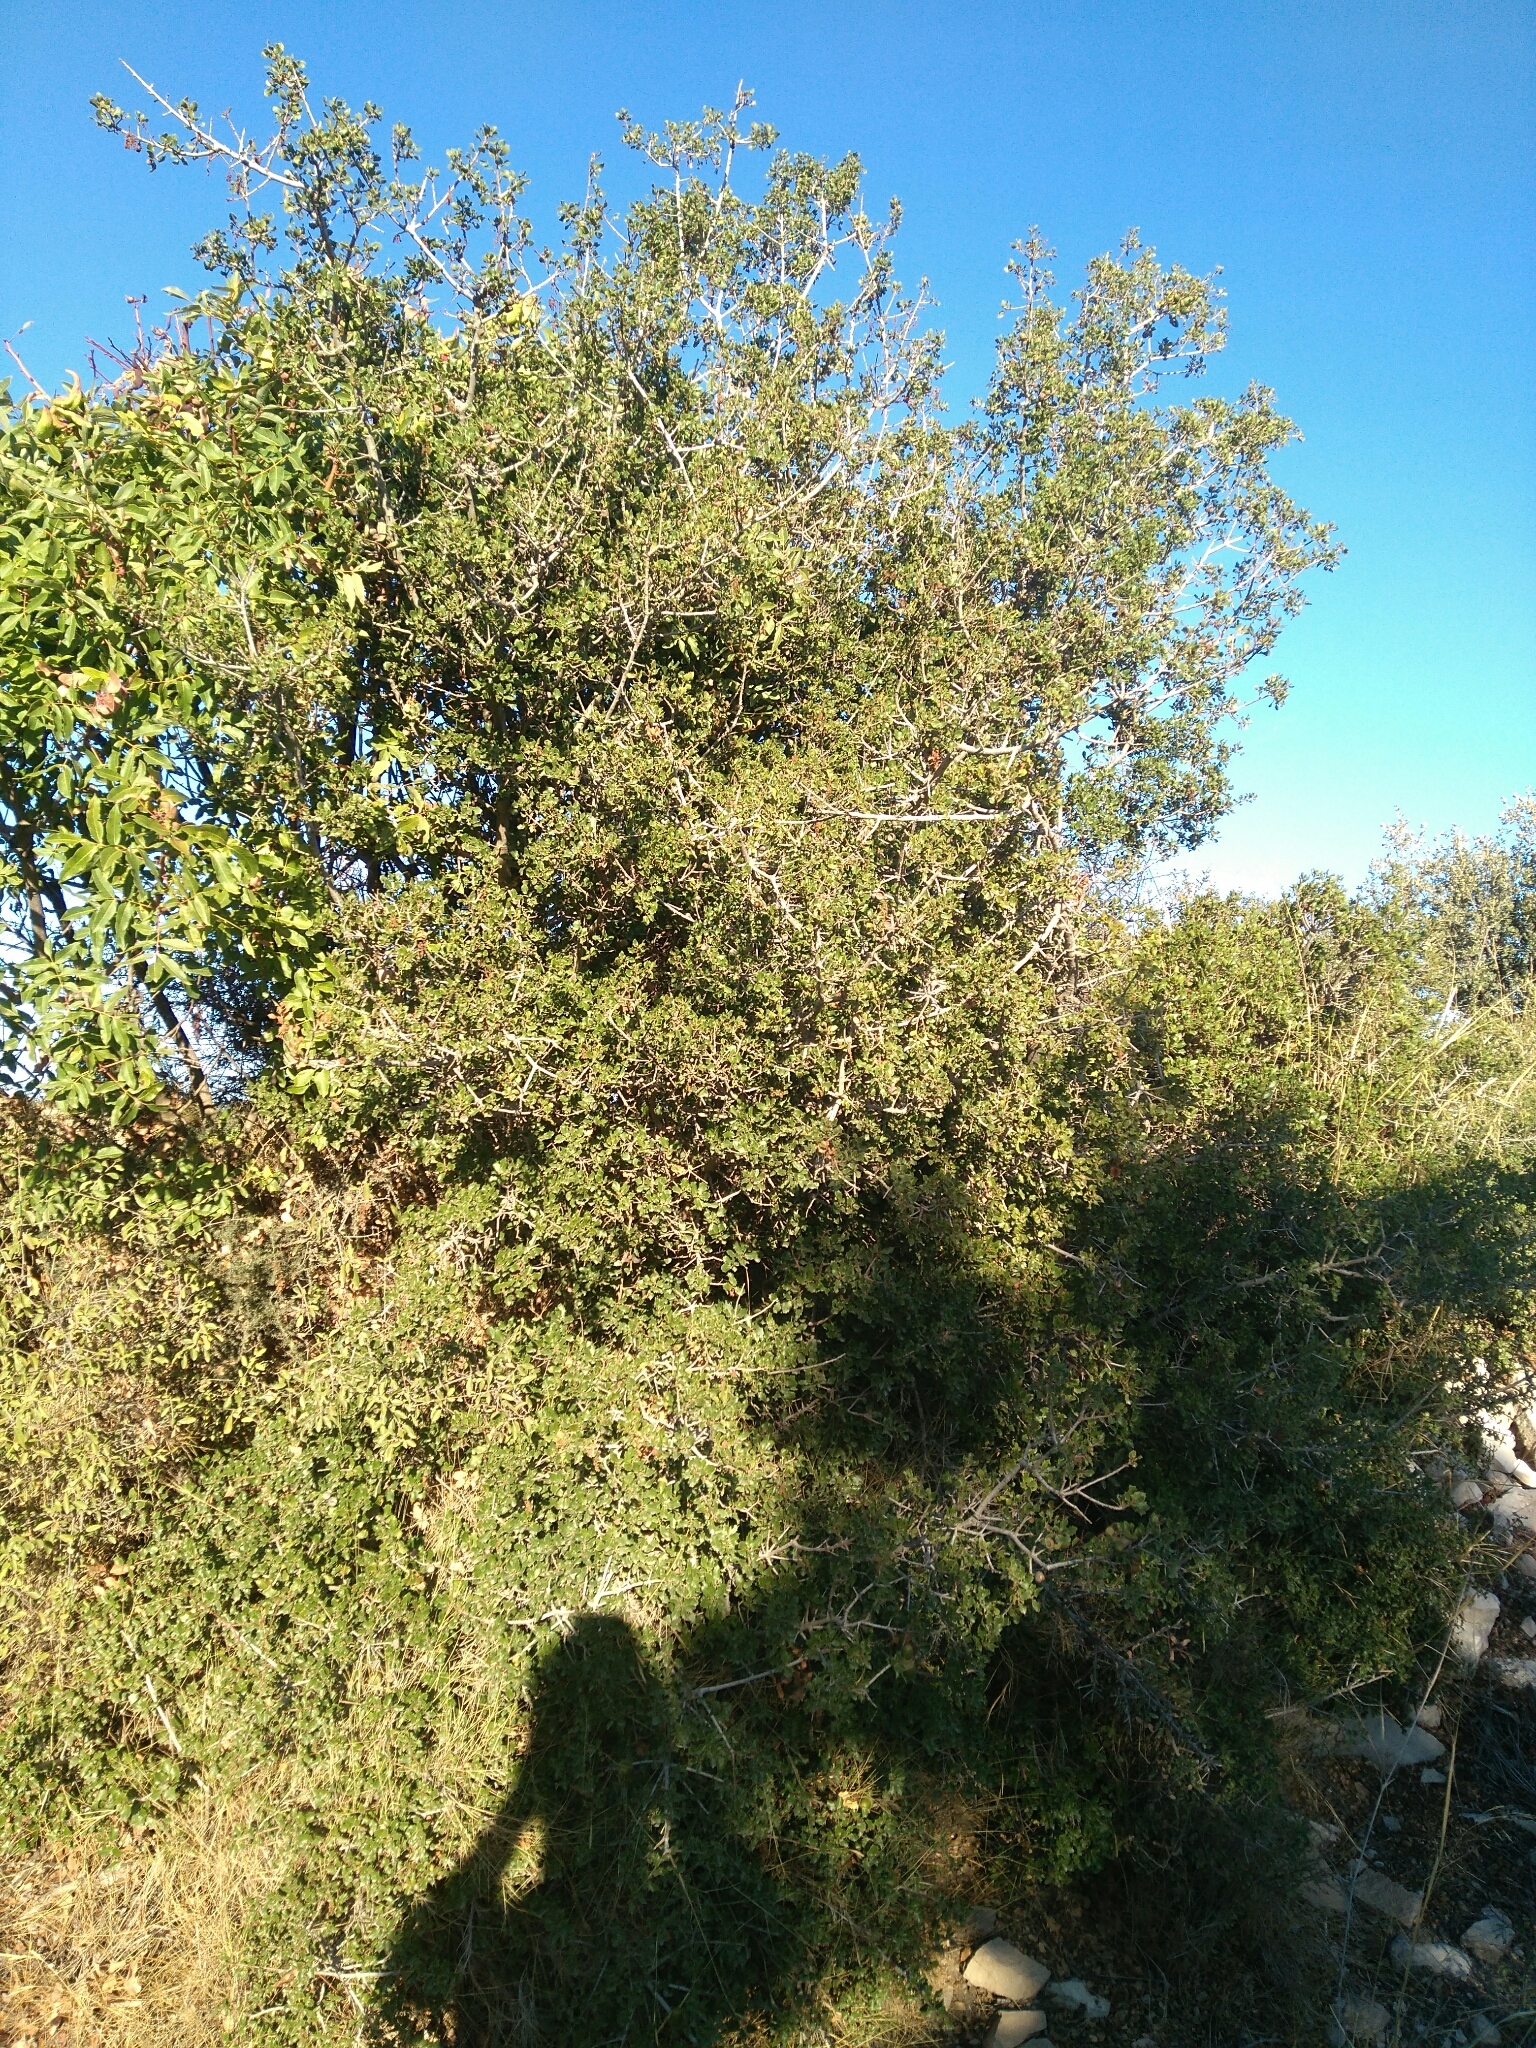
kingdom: Plantae
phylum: Tracheophyta
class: Magnoliopsida
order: Fagales
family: Fagaceae
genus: Quercus
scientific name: Quercus coccifera
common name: Kermes oak
